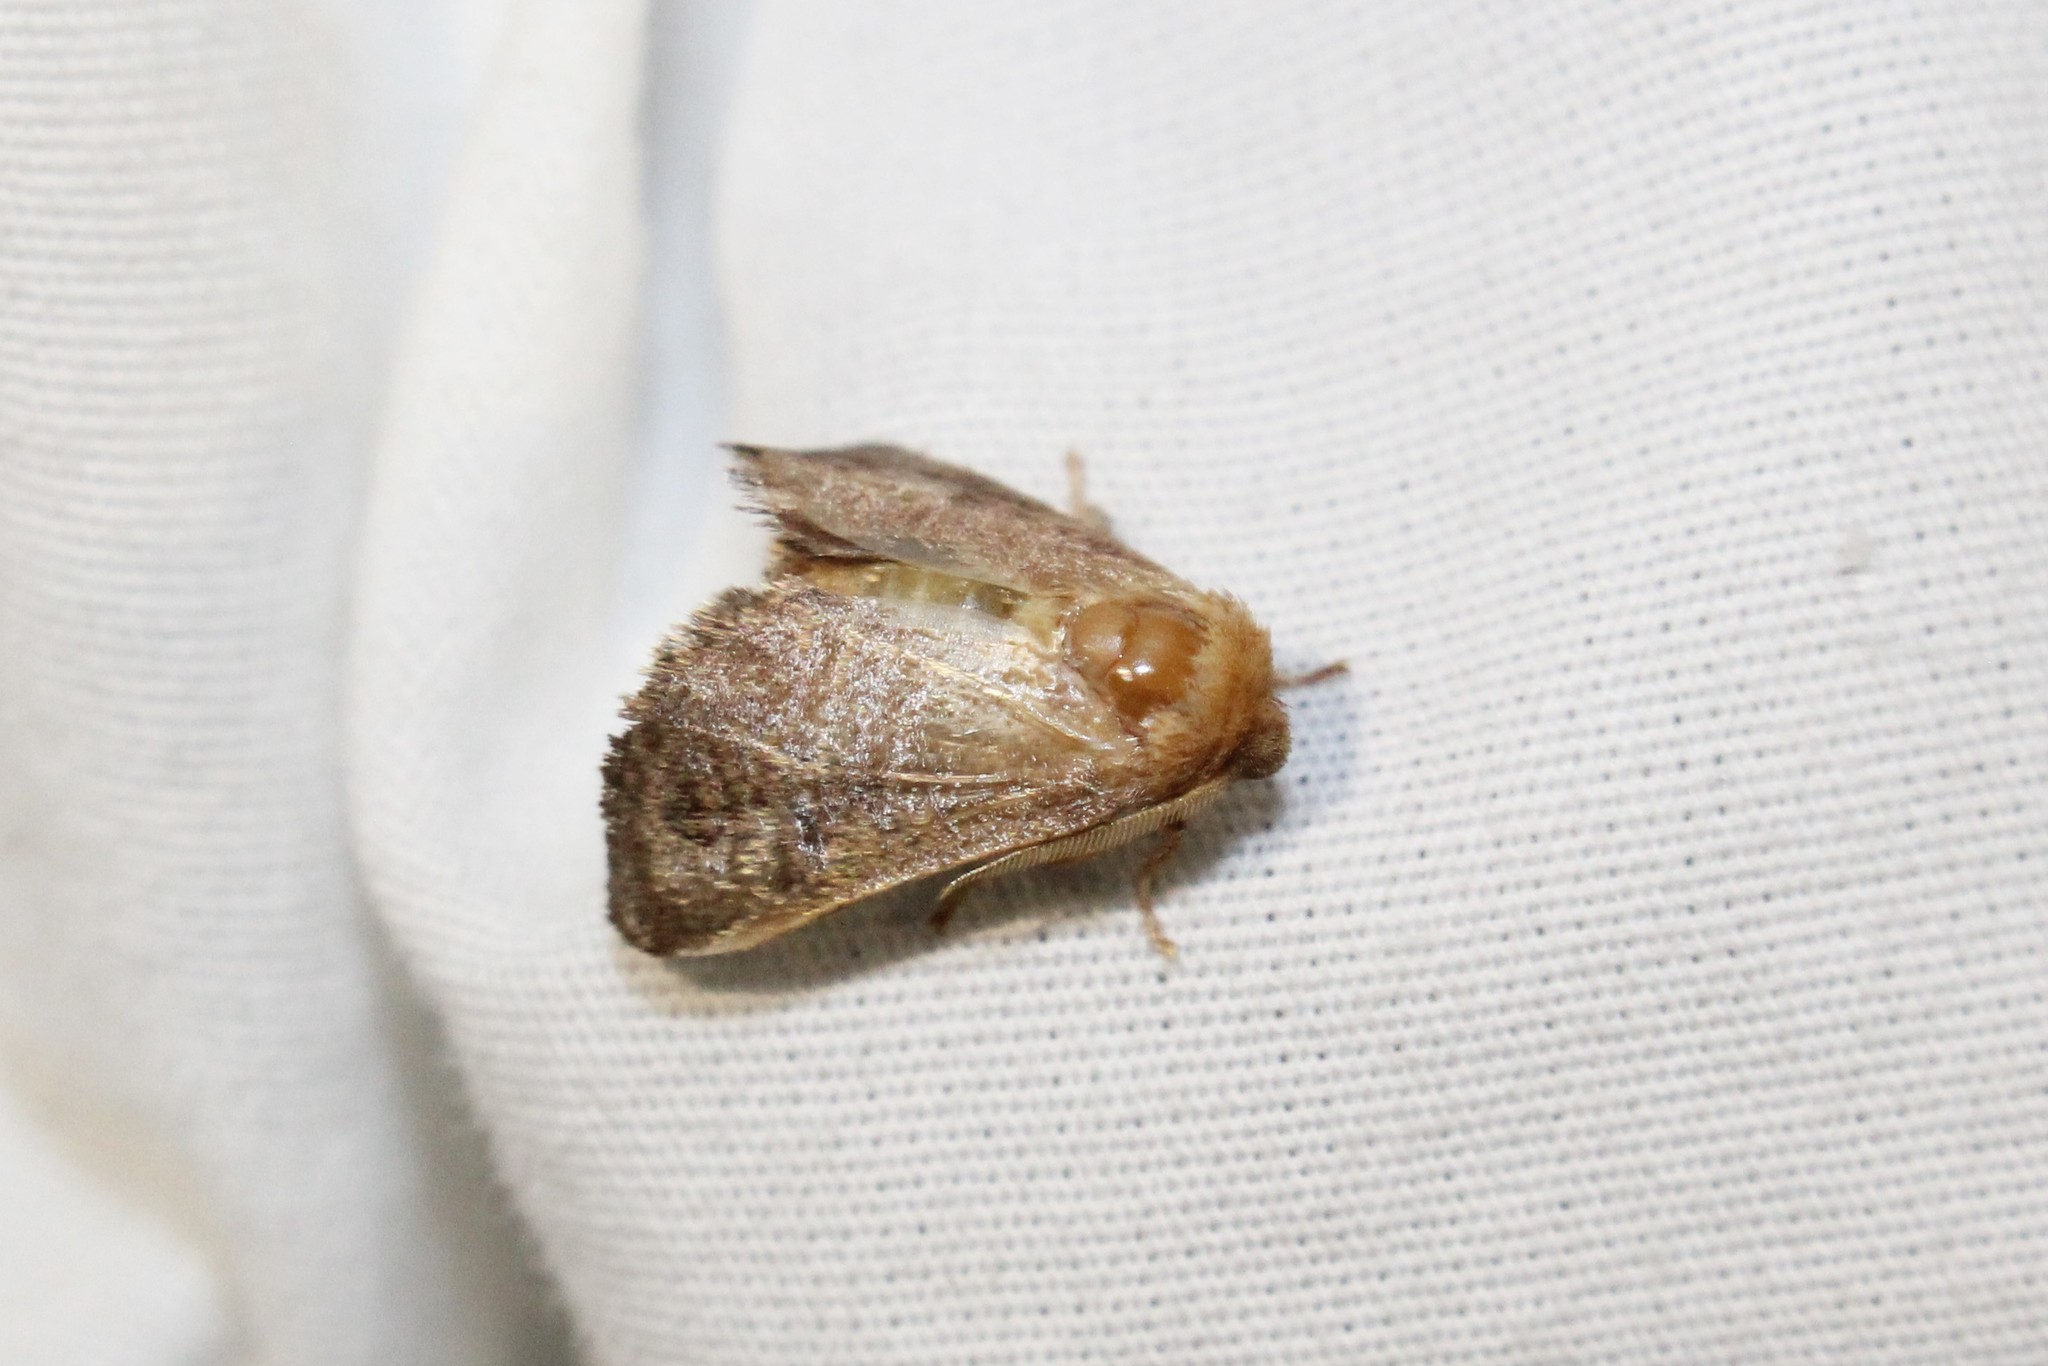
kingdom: Animalia
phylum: Arthropoda
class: Insecta
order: Lepidoptera
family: Limacodidae
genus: Isa
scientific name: Isa textula
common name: Crowned slug moth
